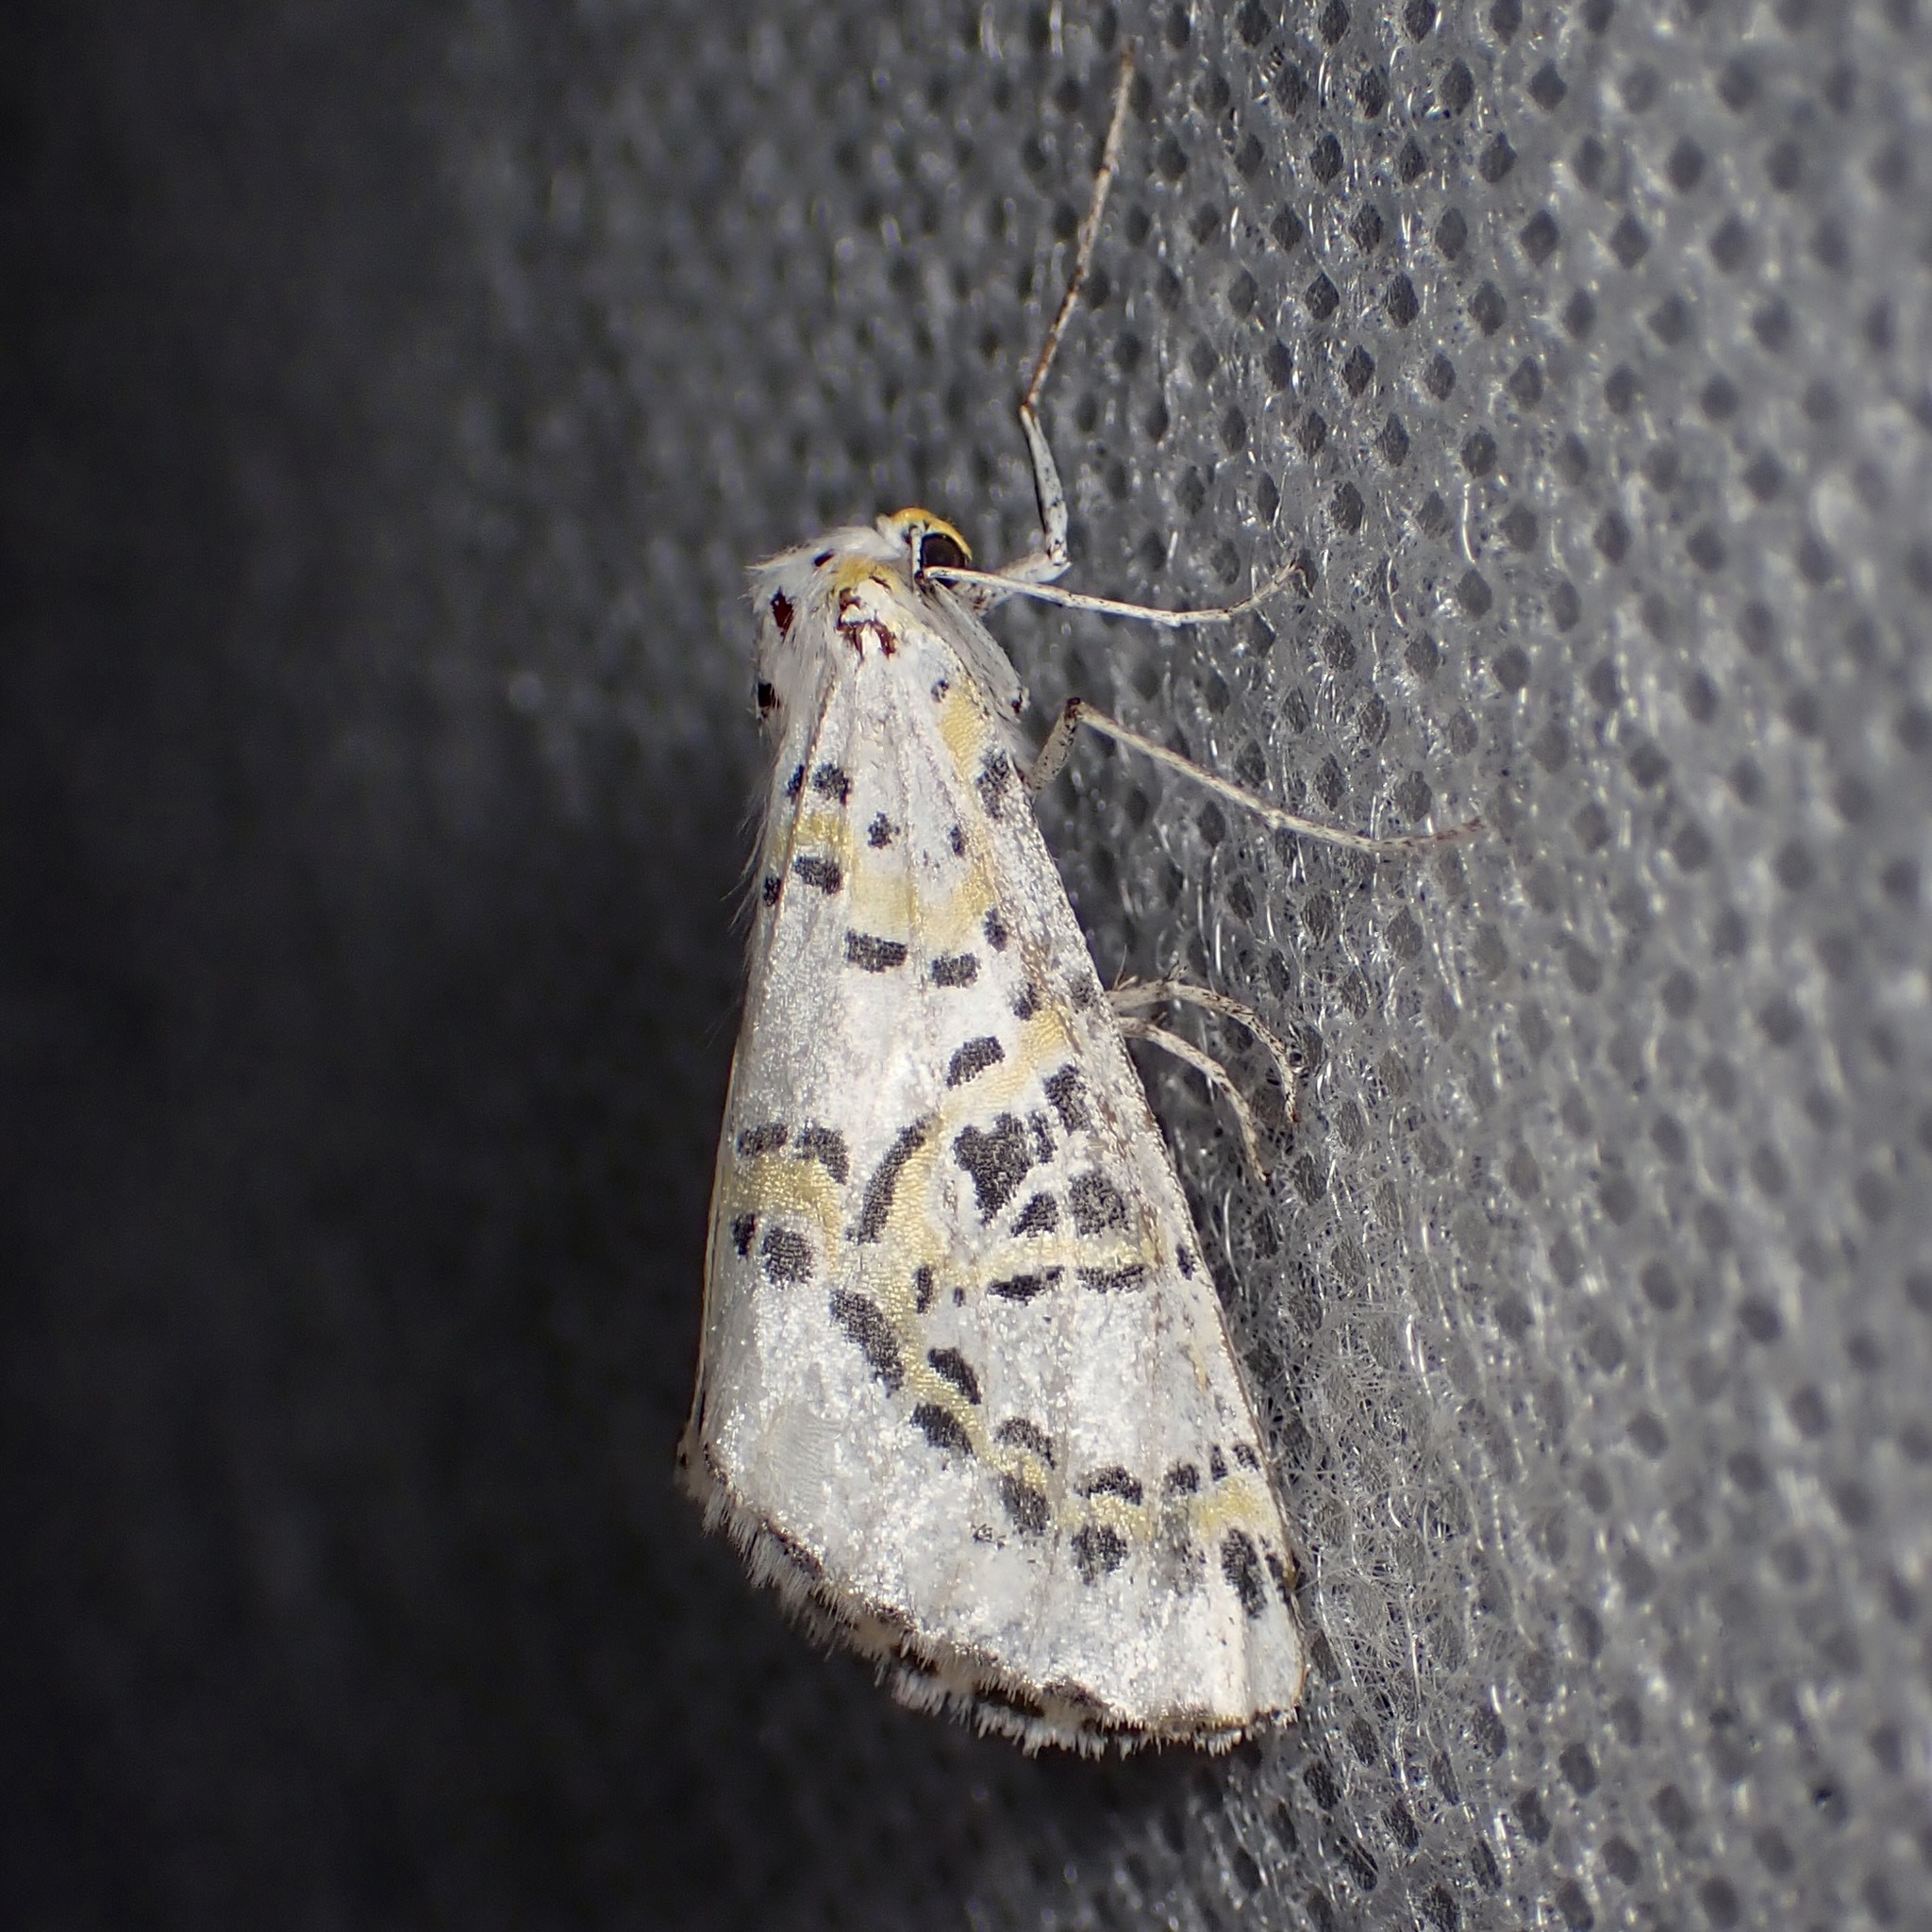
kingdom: Animalia
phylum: Arthropoda
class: Insecta
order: Lepidoptera
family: Geometridae
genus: Philtraea
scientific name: Philtraea elegantaria
